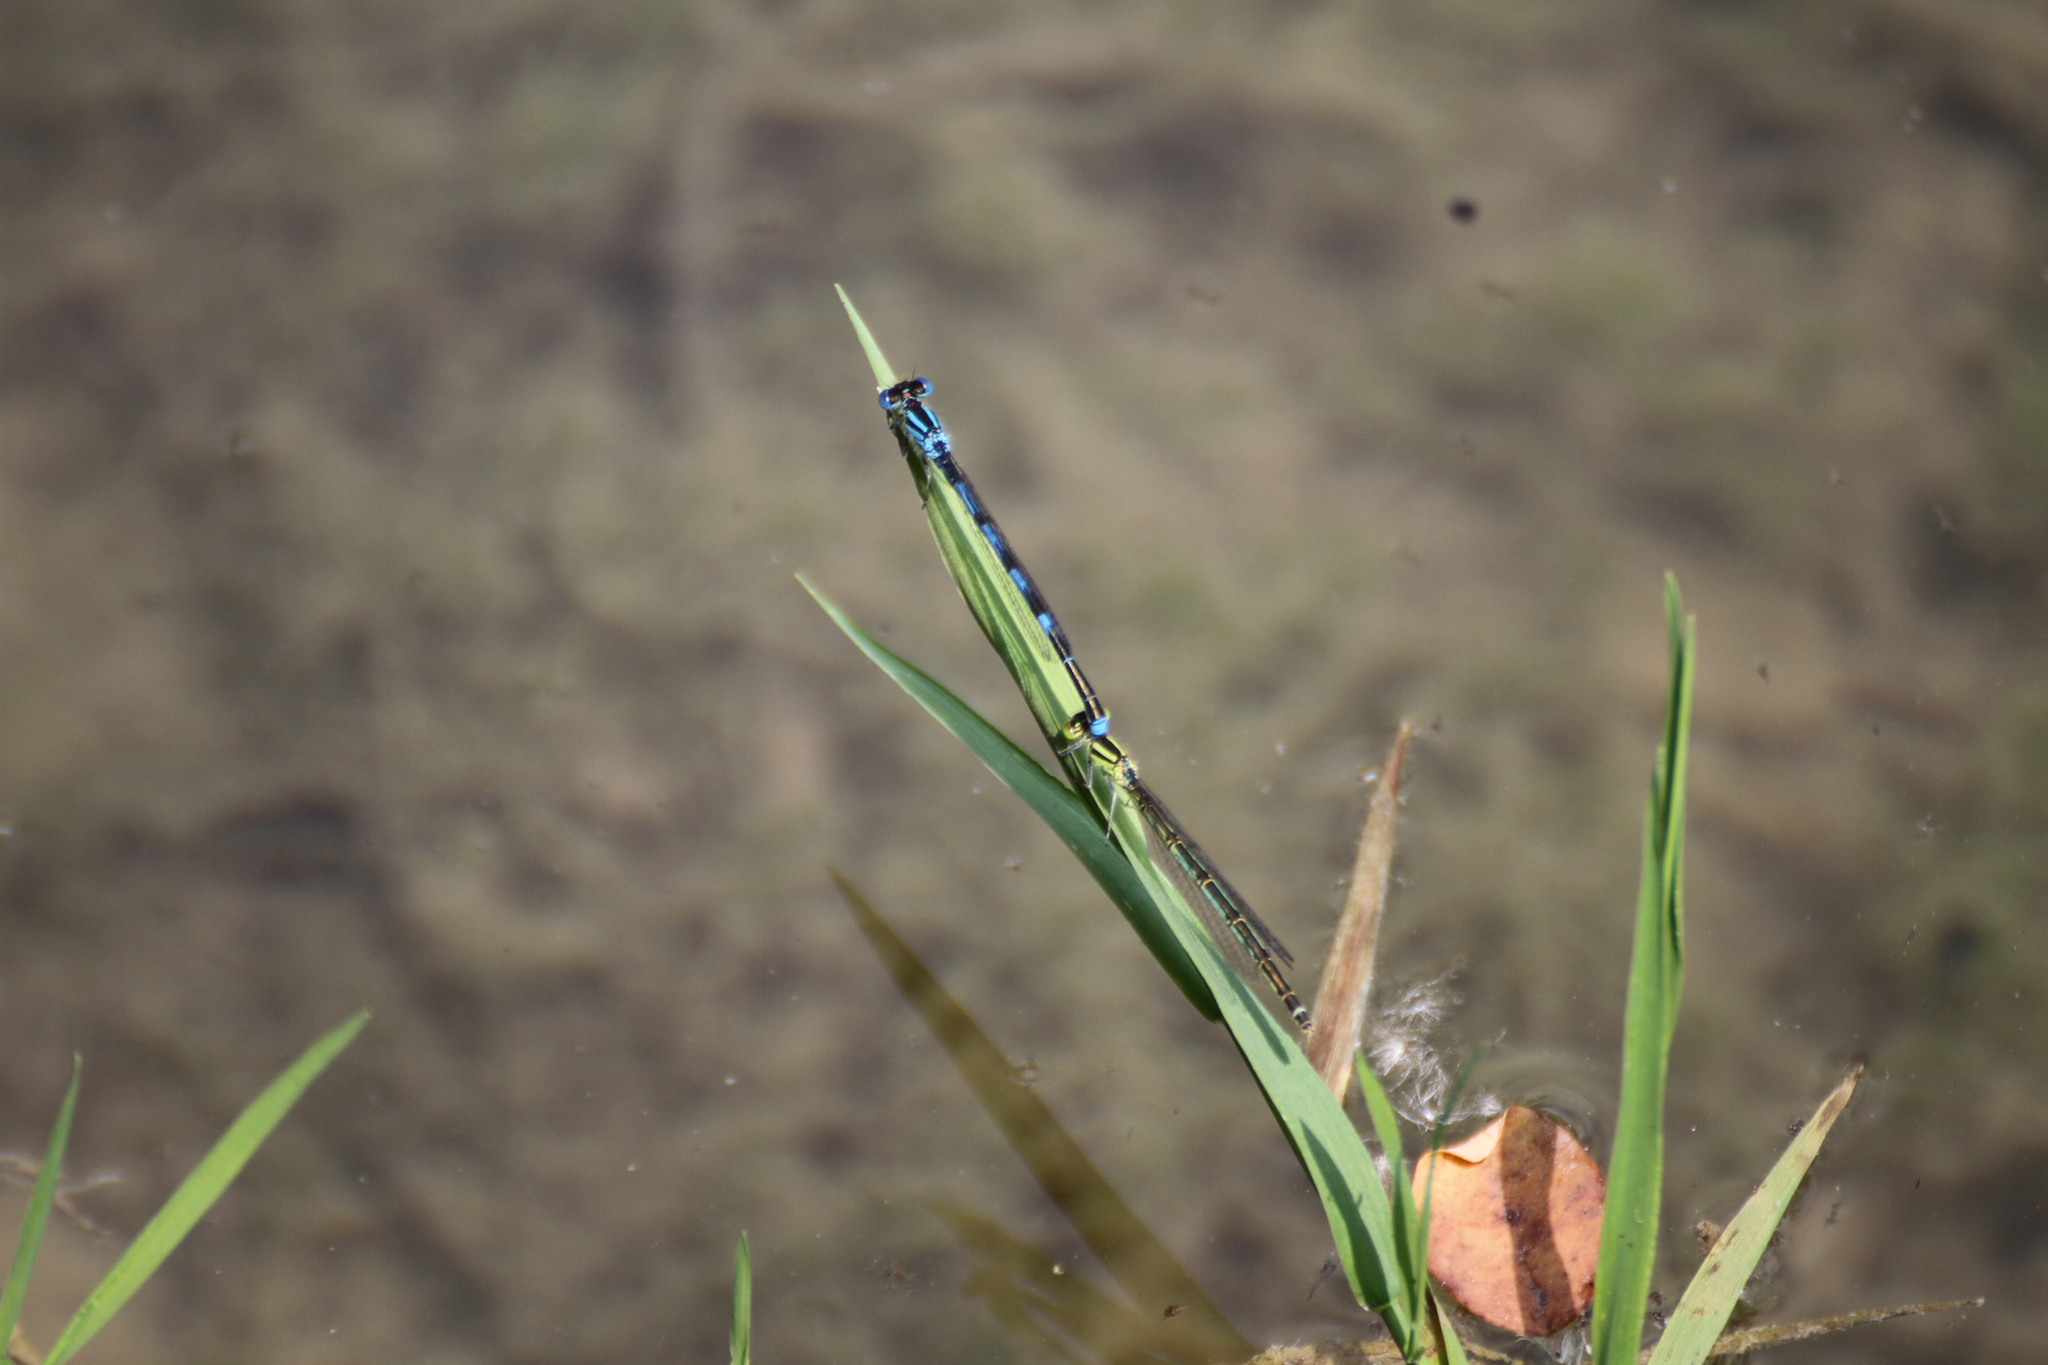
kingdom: Animalia
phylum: Arthropoda
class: Insecta
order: Odonata
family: Coenagrionidae
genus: Erythromma
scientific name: Erythromma lindenii
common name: Blue-eye
